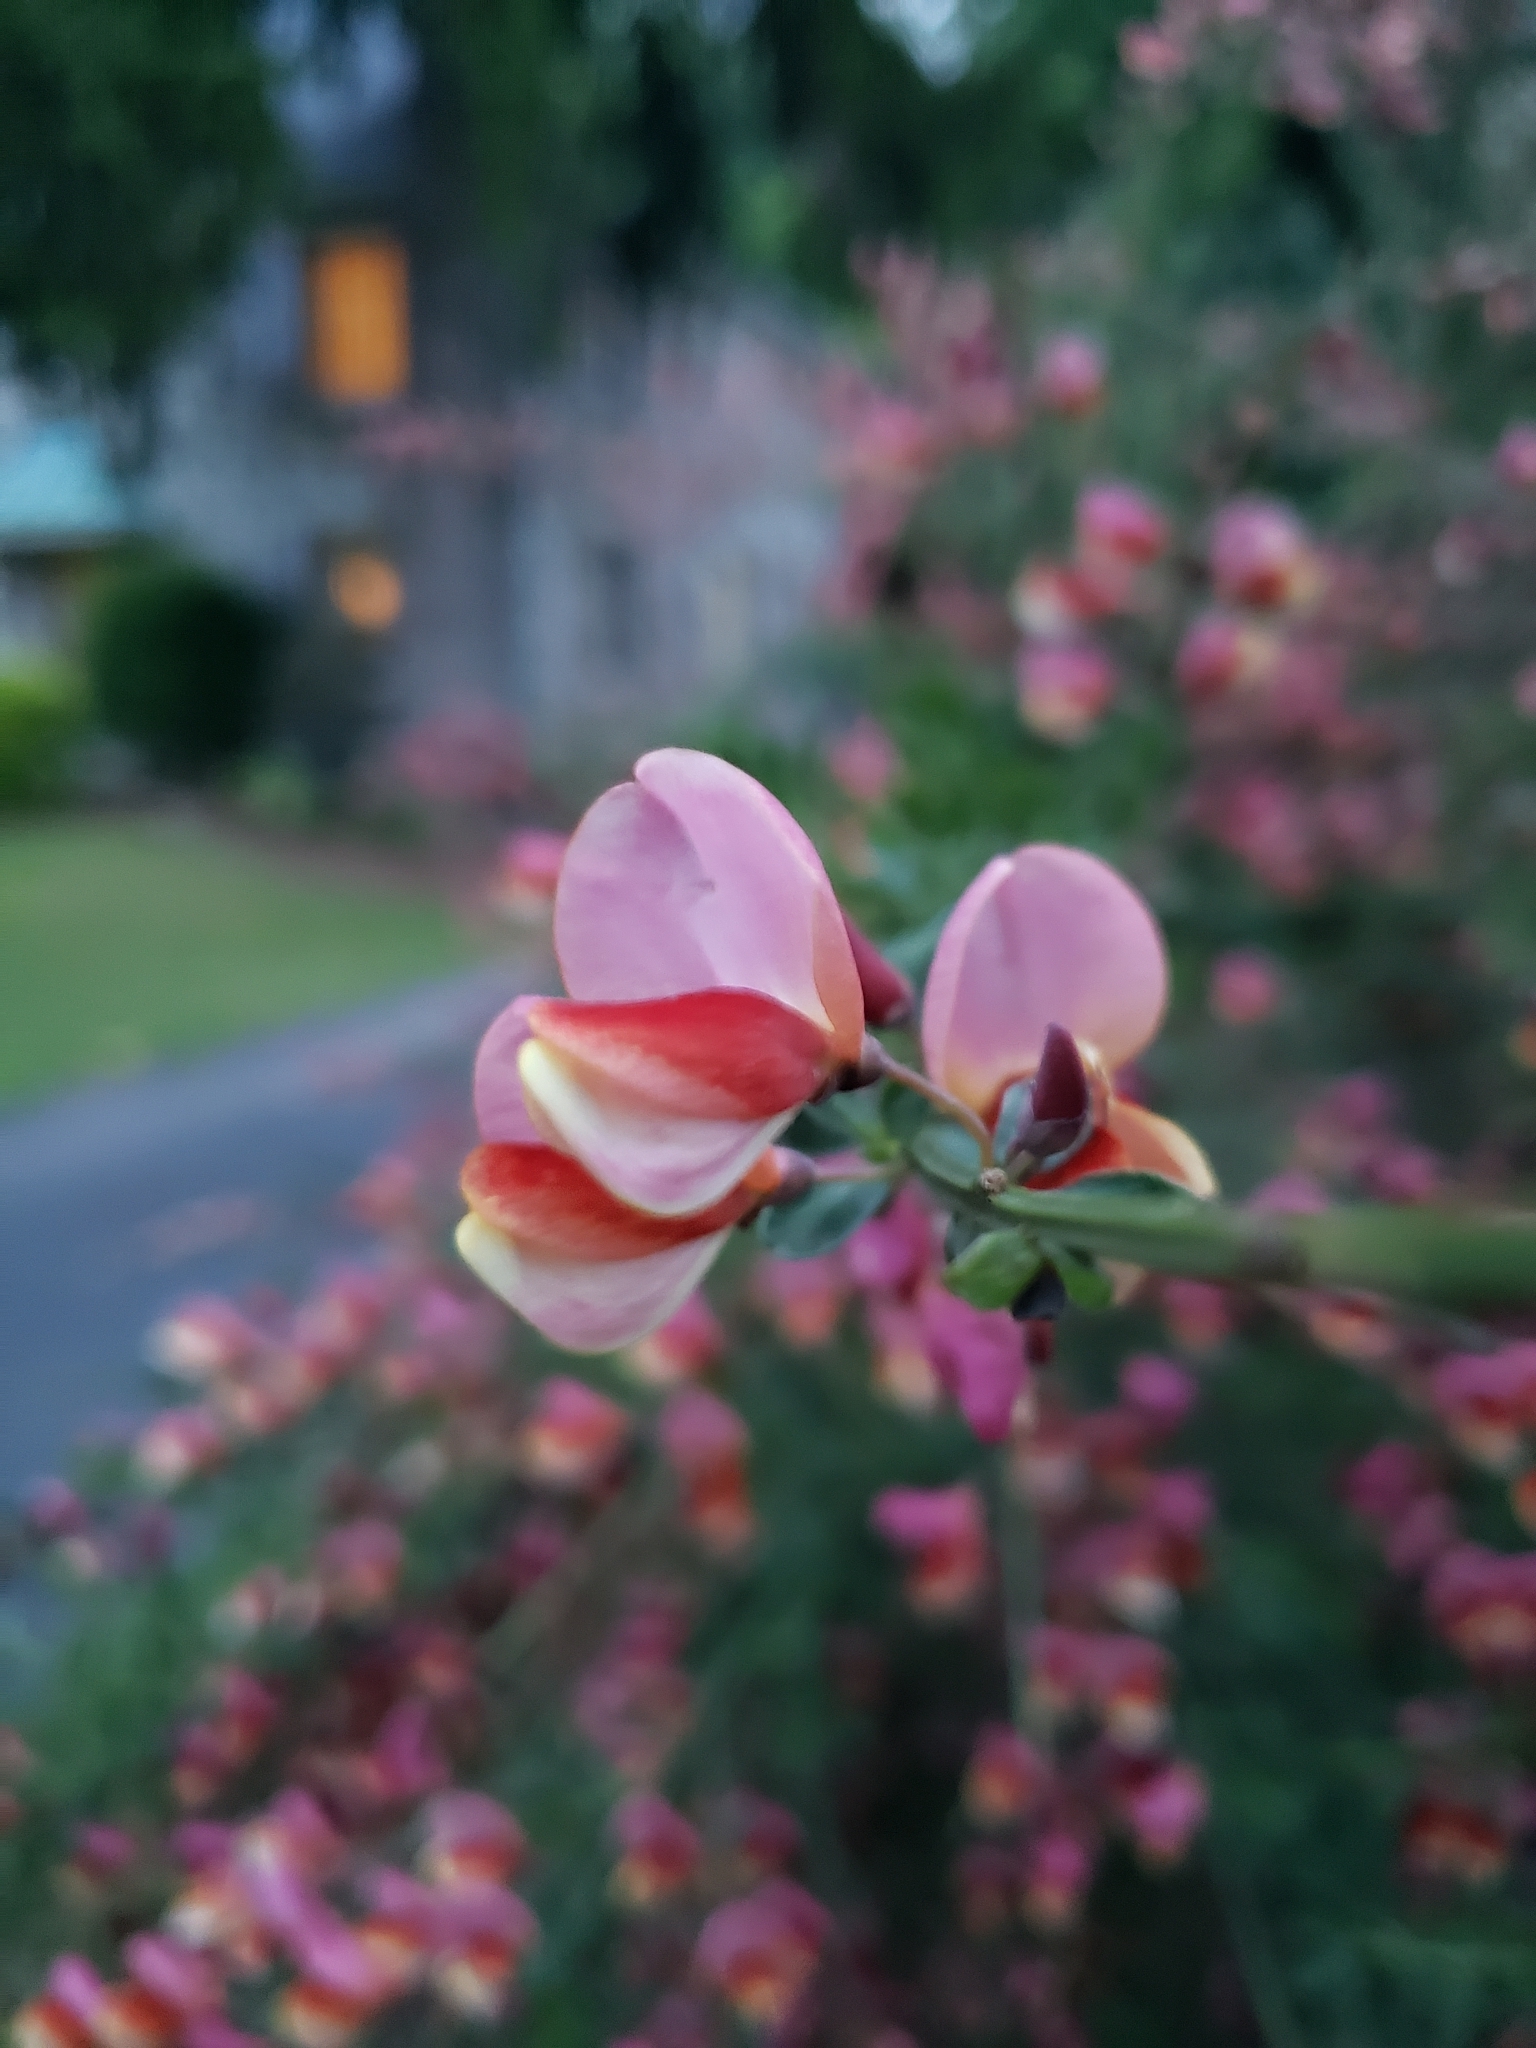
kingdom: Plantae
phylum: Tracheophyta
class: Magnoliopsida
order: Fabales
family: Fabaceae
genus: Cytisus
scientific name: Cytisus scoparius
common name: Scotch broom
